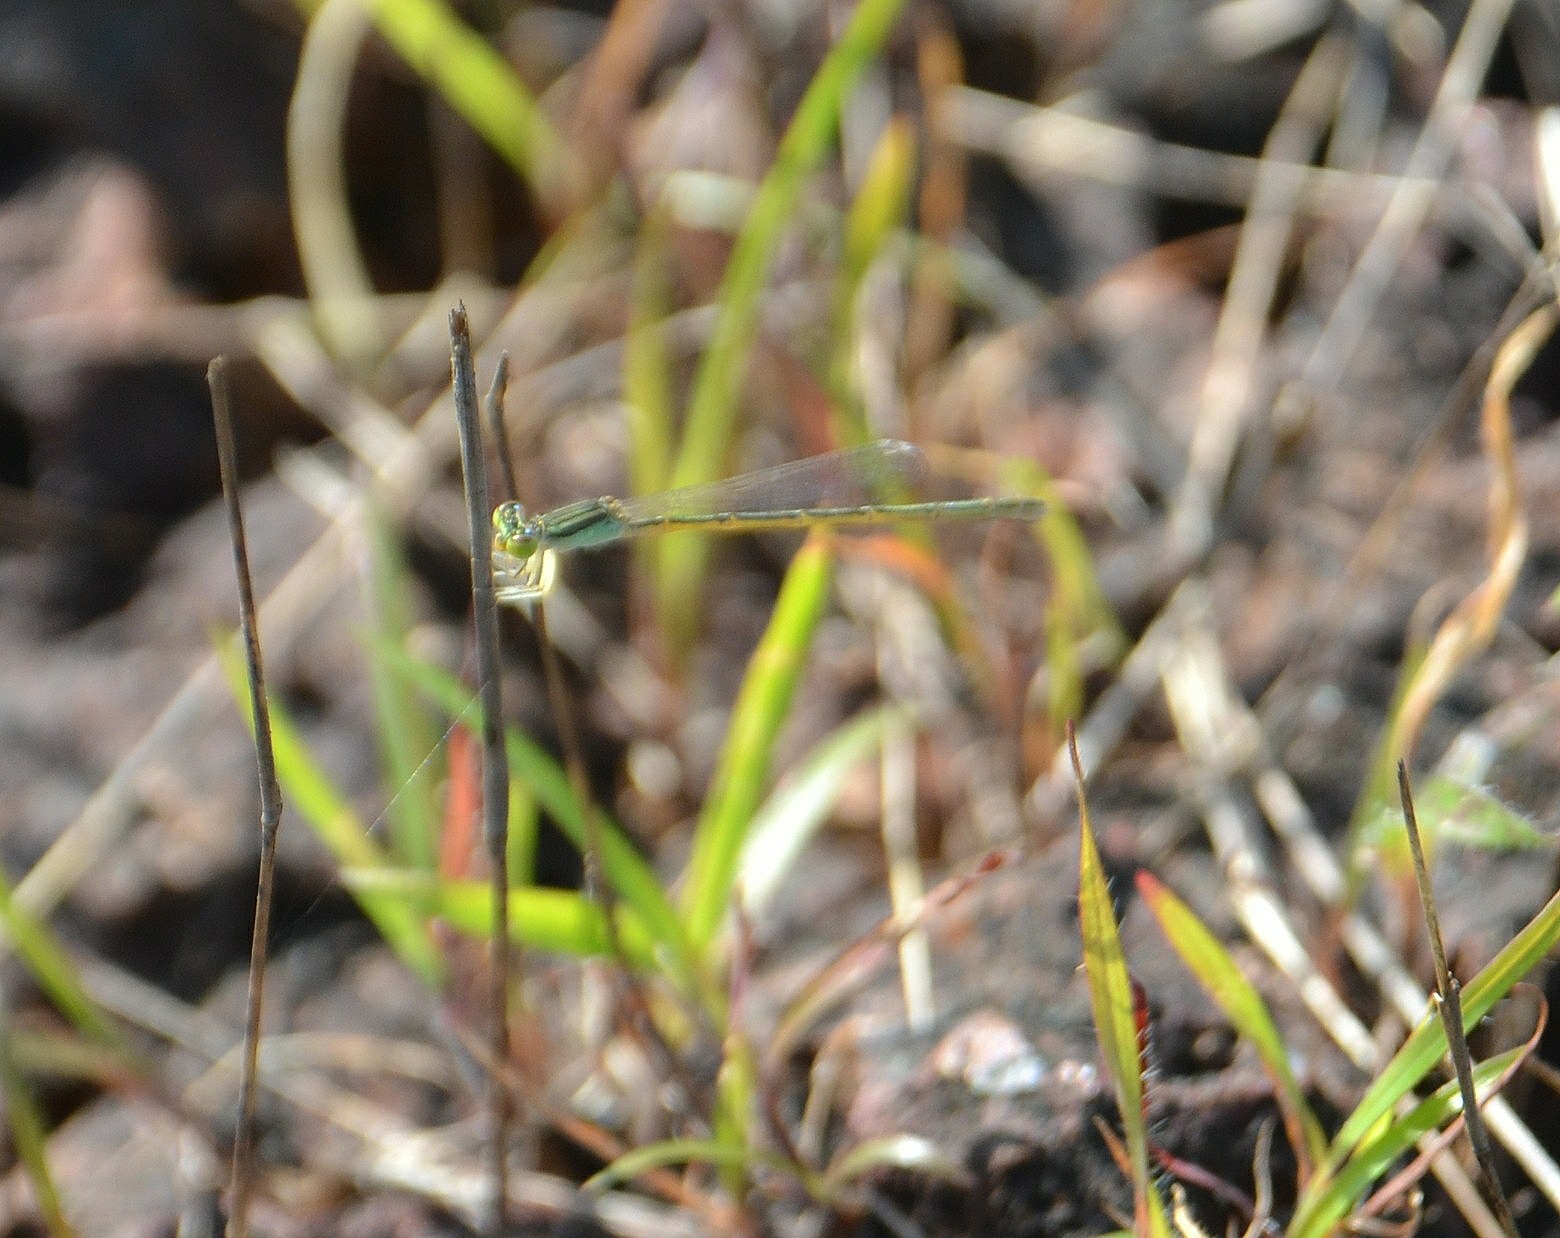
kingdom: Animalia
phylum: Arthropoda
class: Insecta
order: Odonata
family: Coenagrionidae
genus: Ischnura
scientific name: Ischnura rubilio
